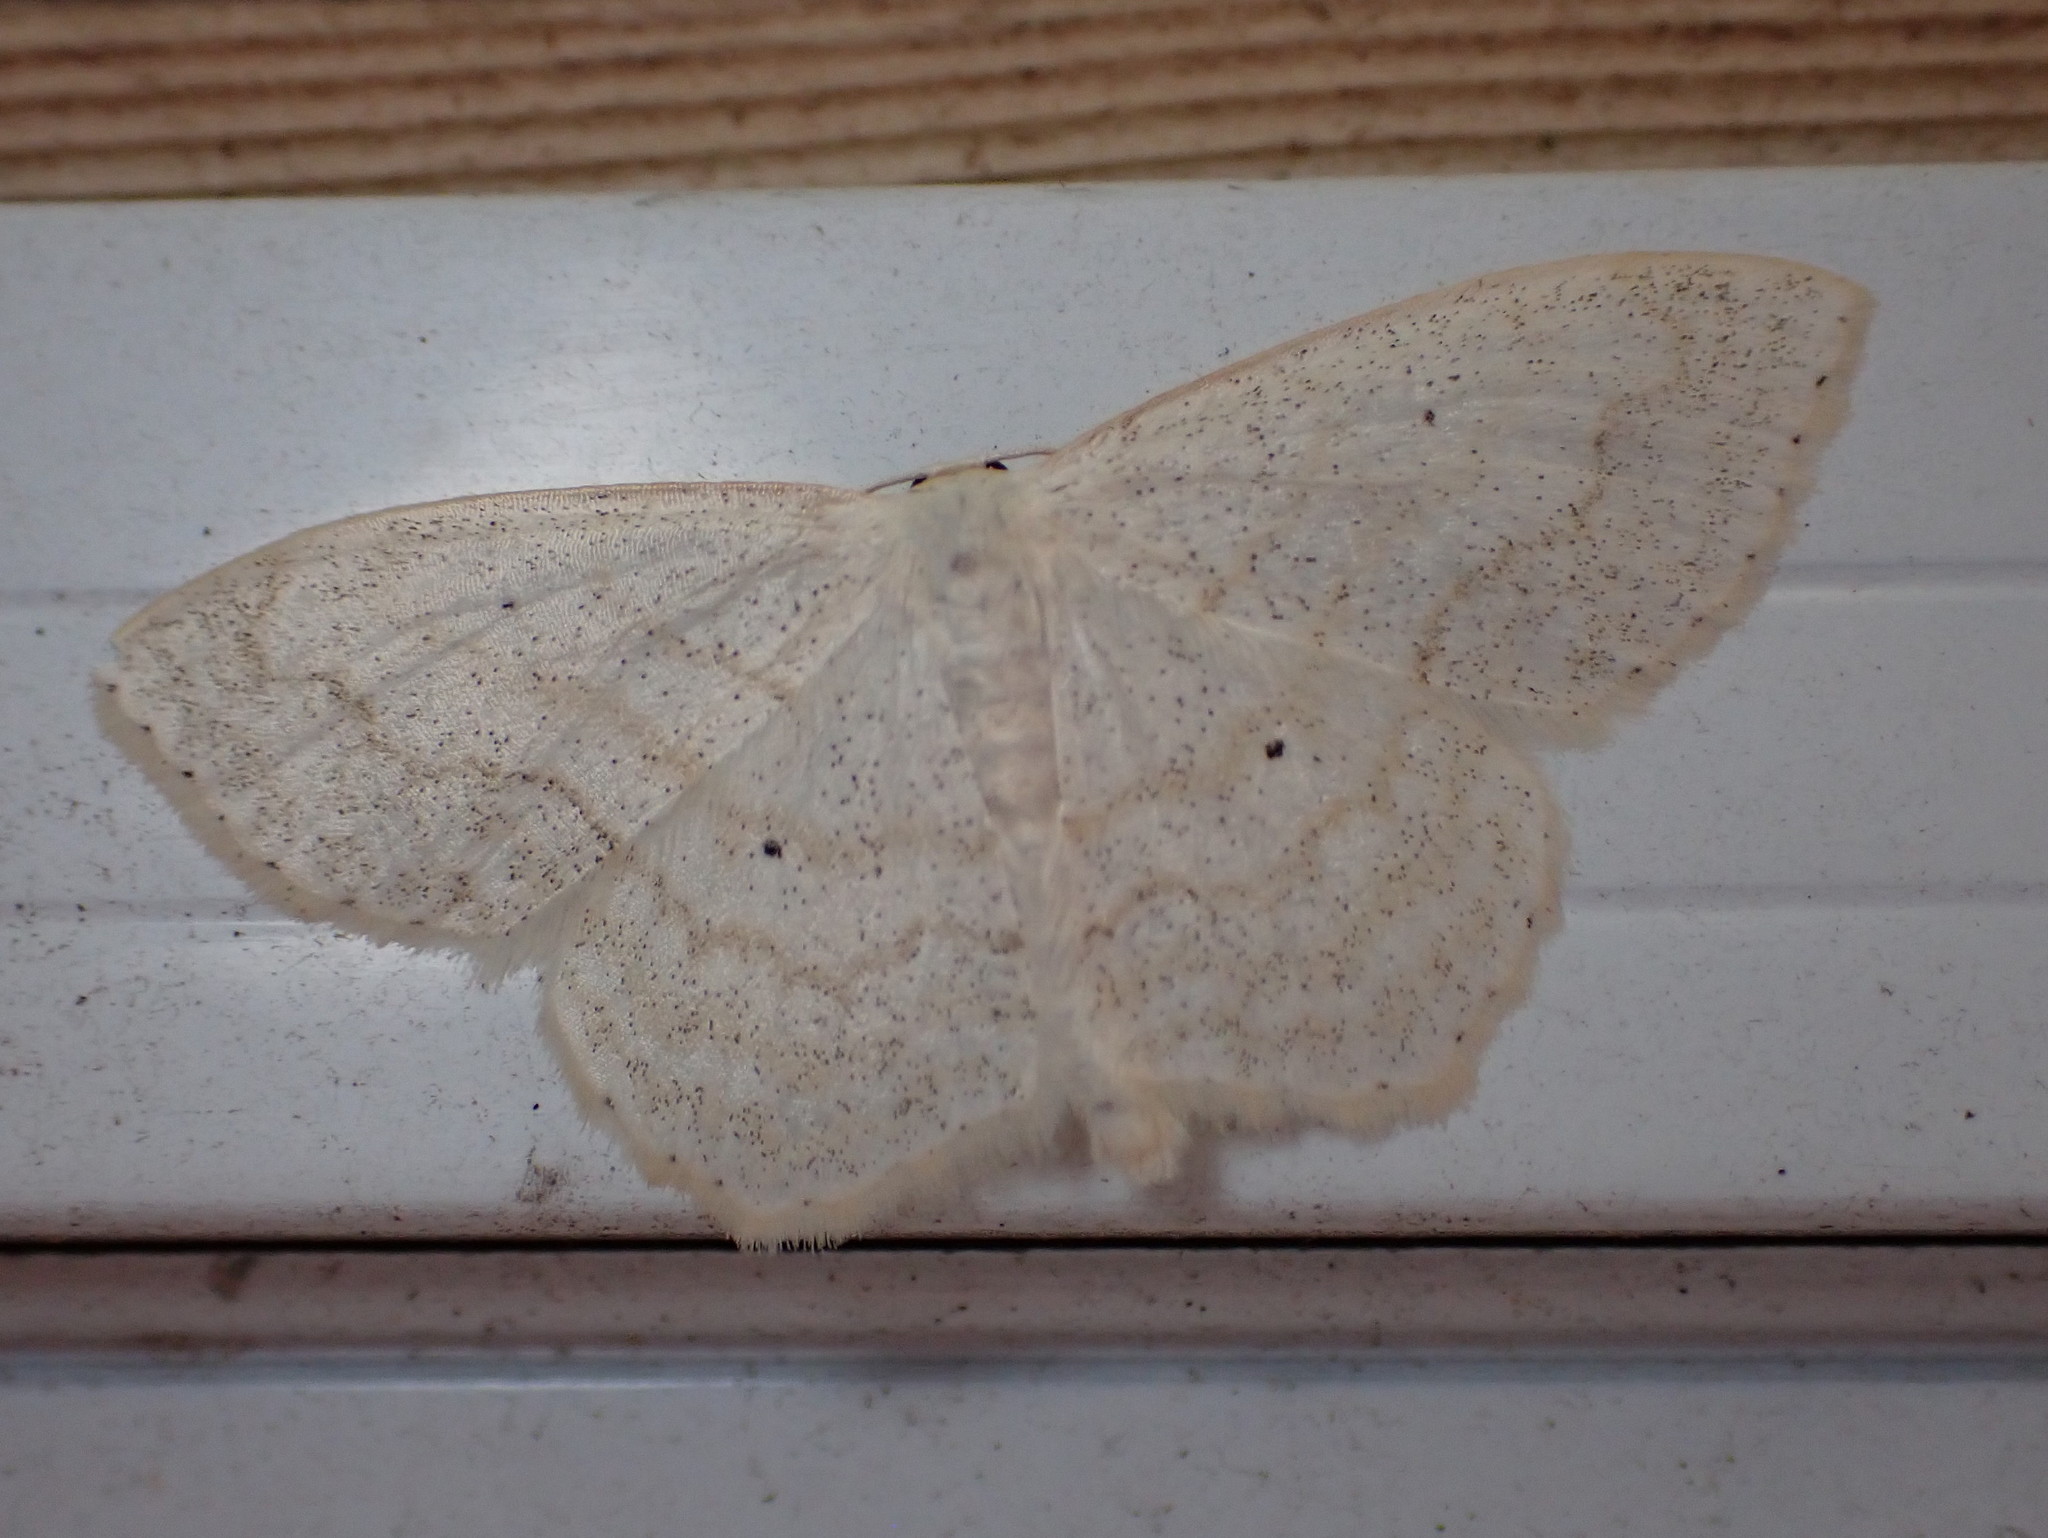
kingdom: Animalia
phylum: Arthropoda
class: Insecta
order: Lepidoptera
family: Geometridae
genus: Scopula
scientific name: Scopula limboundata
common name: Large lace border
